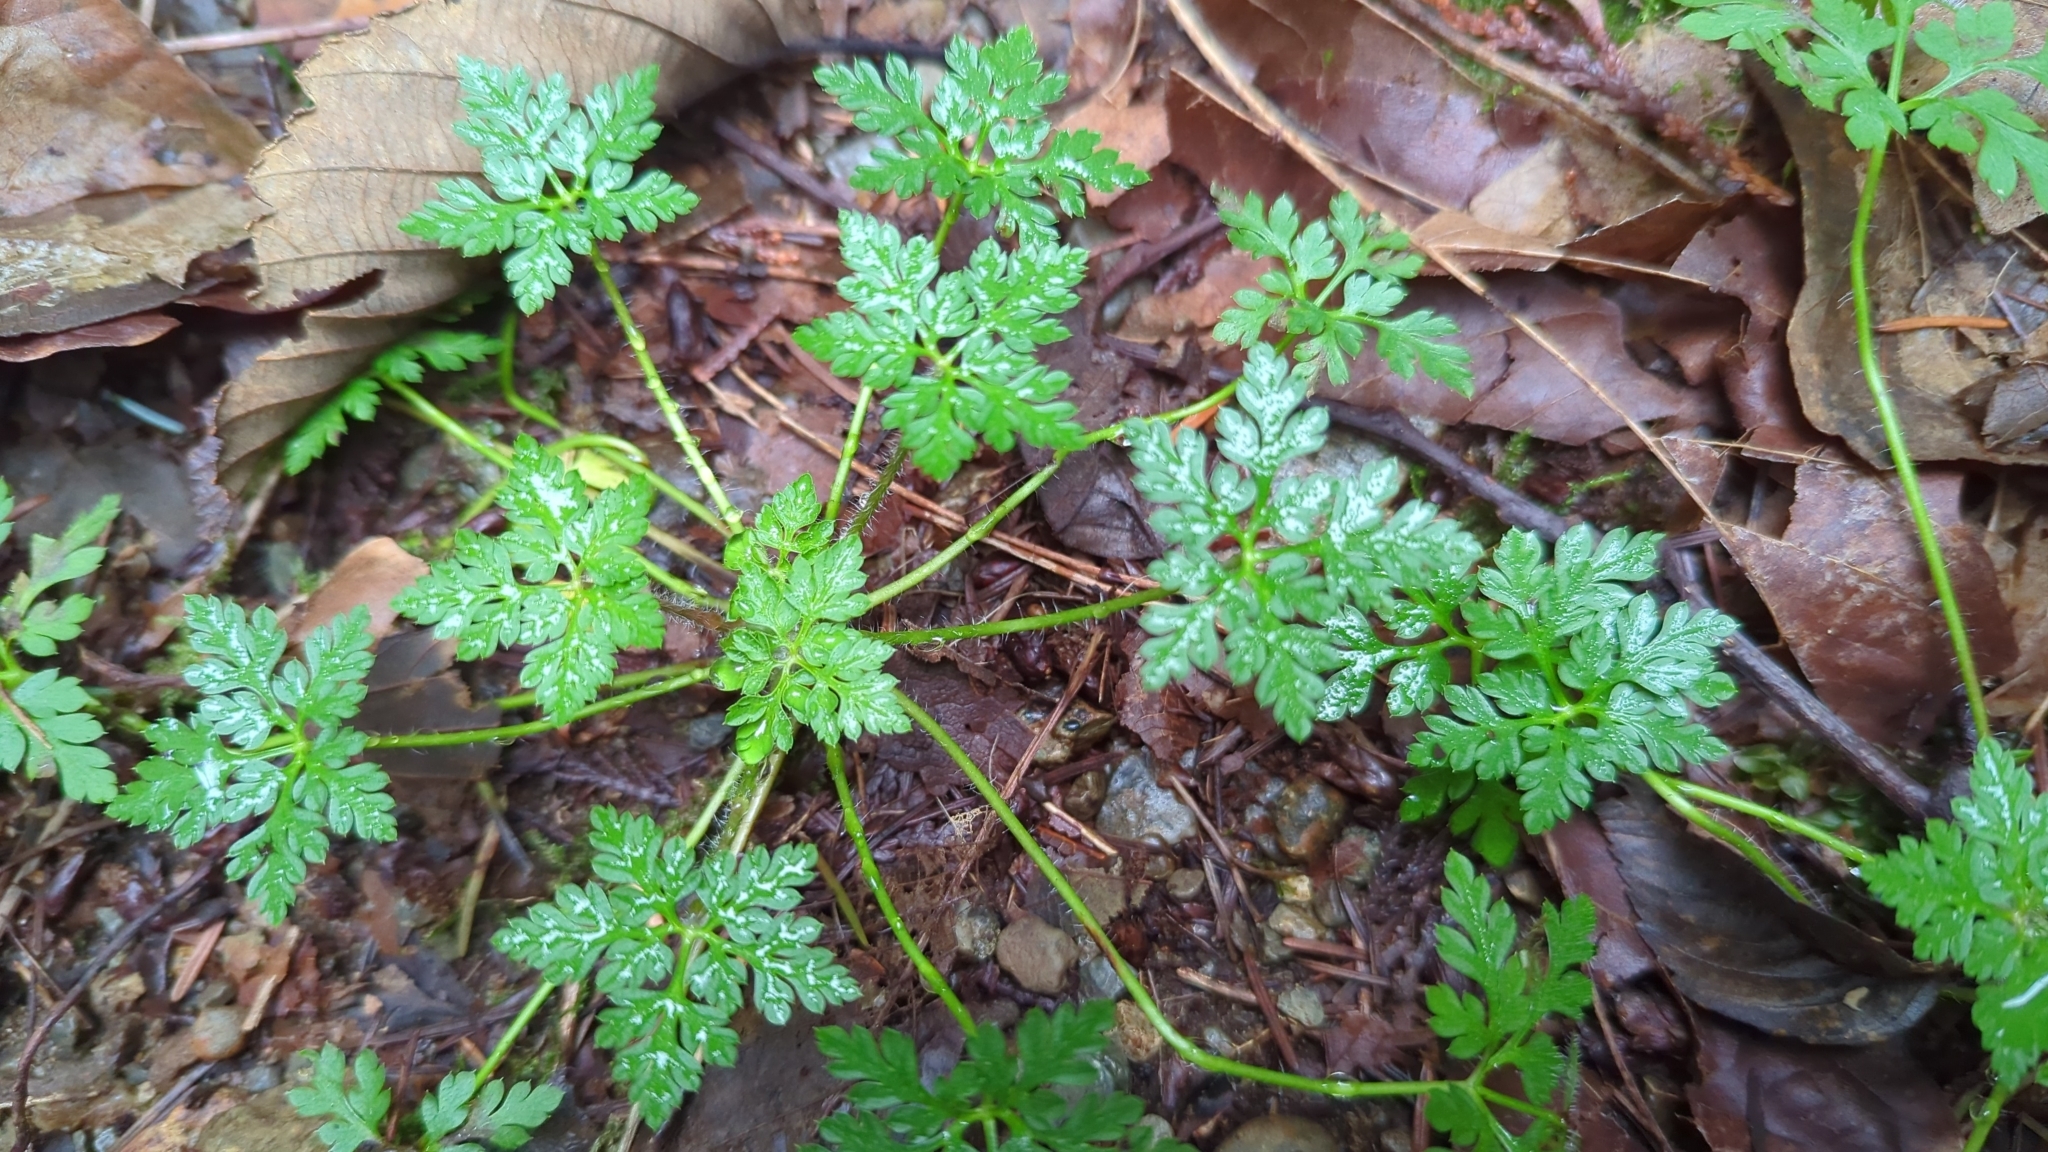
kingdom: Plantae
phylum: Tracheophyta
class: Magnoliopsida
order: Geraniales
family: Geraniaceae
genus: Geranium
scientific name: Geranium robertianum
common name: Herb-robert
